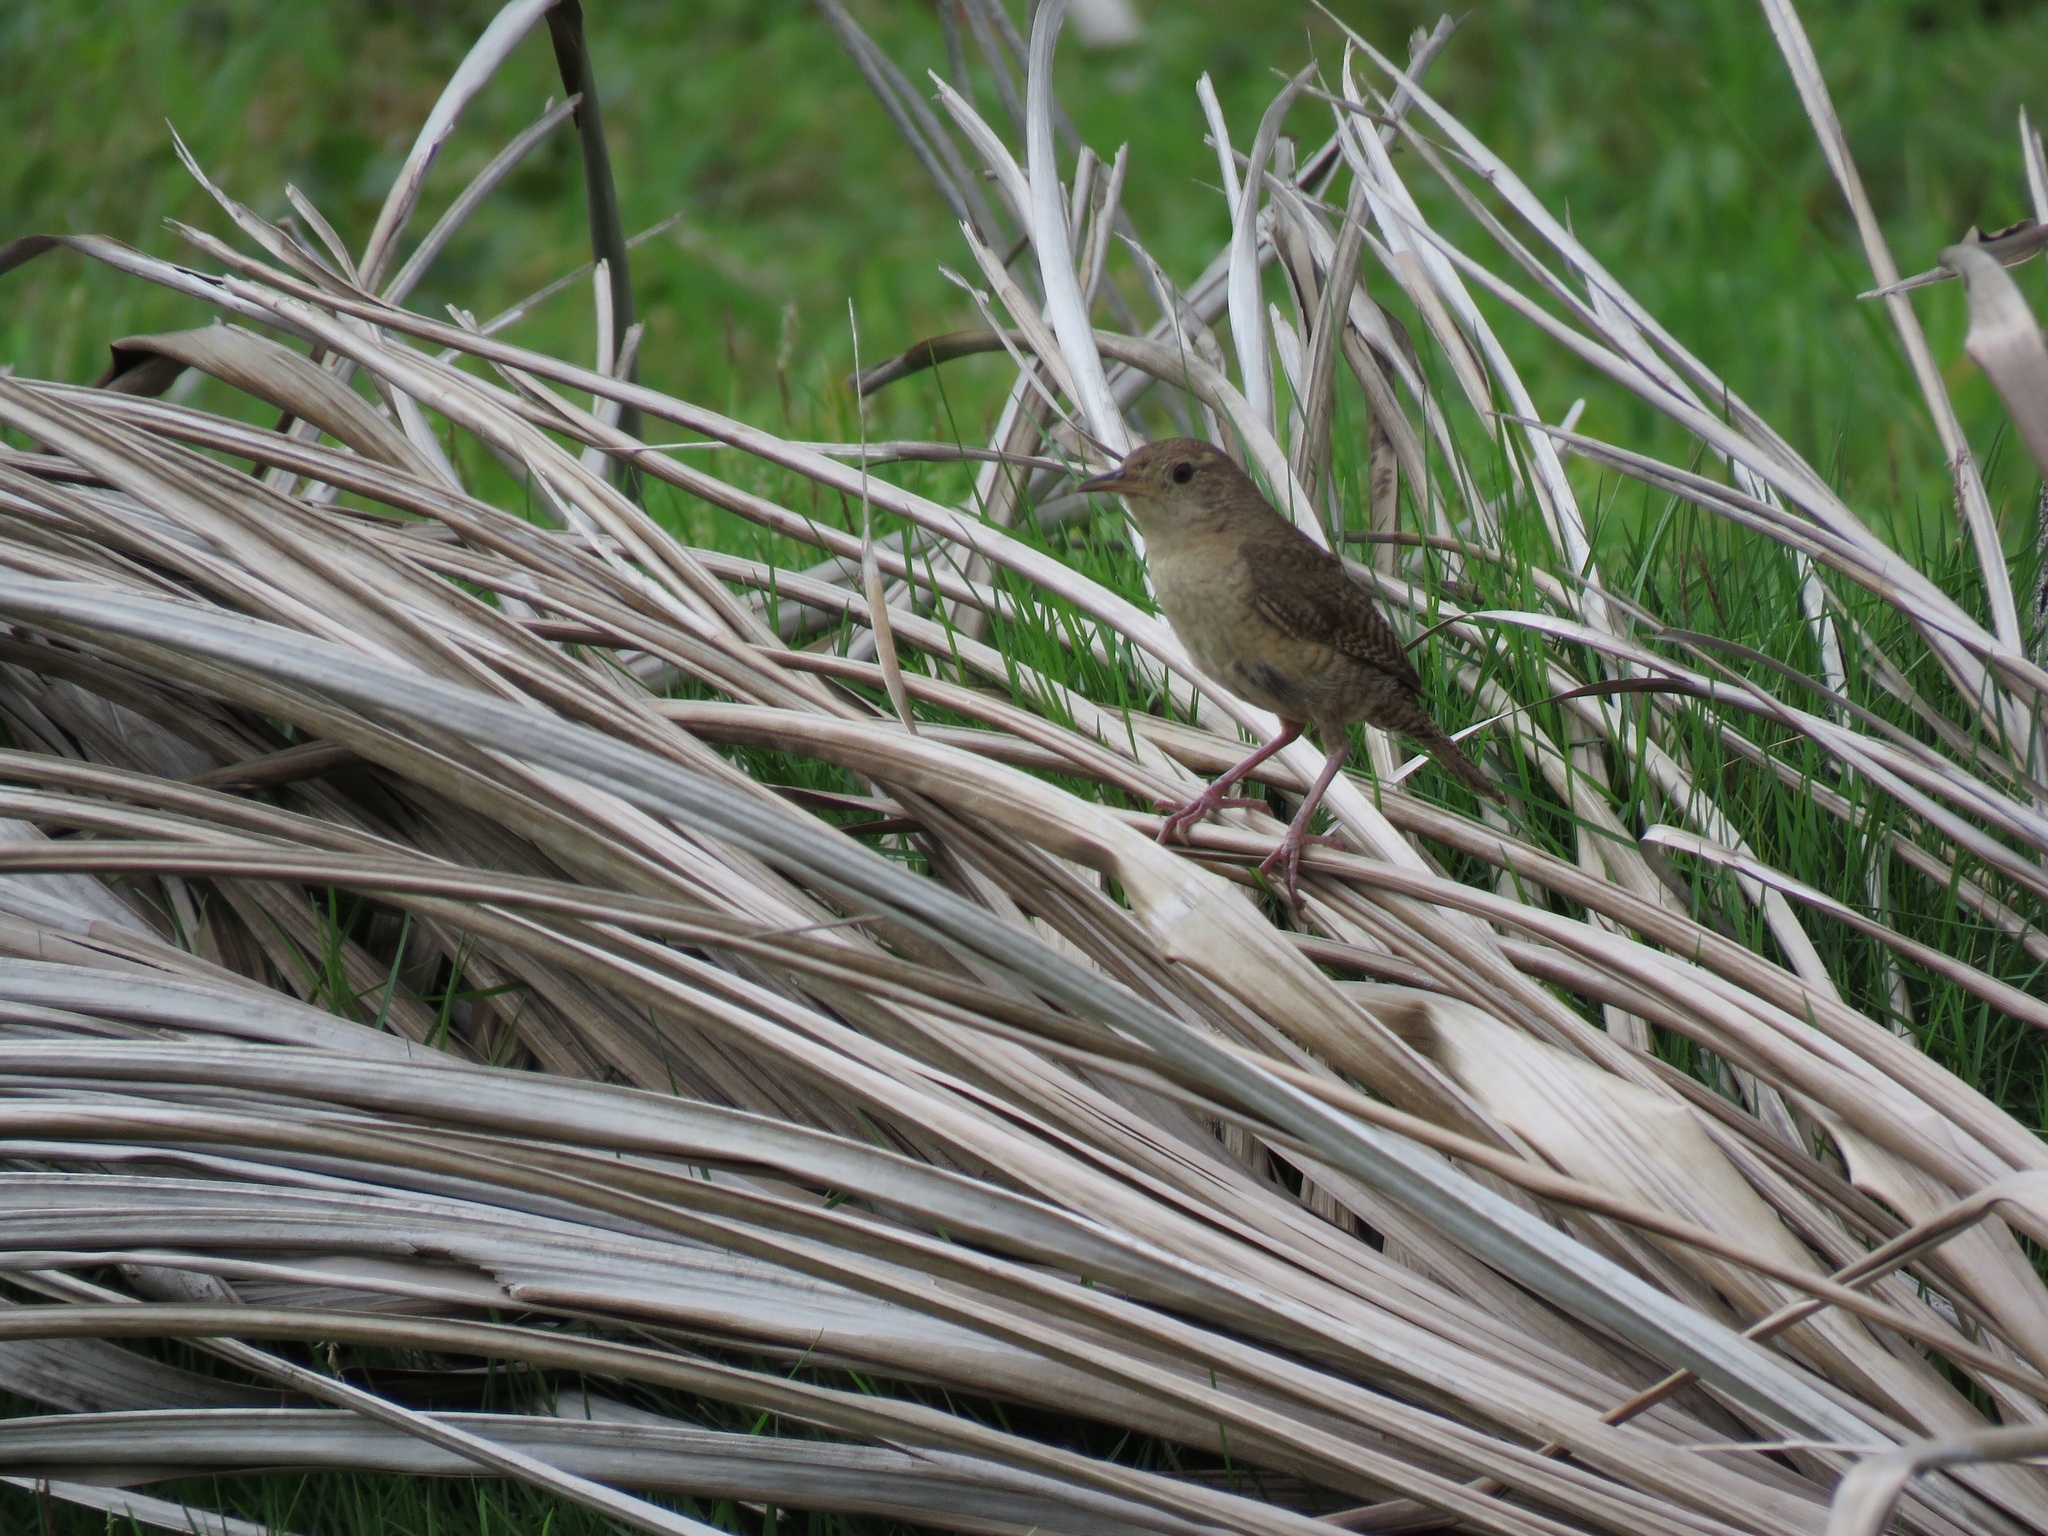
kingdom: Animalia
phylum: Chordata
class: Aves
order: Passeriformes
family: Troglodytidae
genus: Troglodytes
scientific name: Troglodytes aedon
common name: House wren
